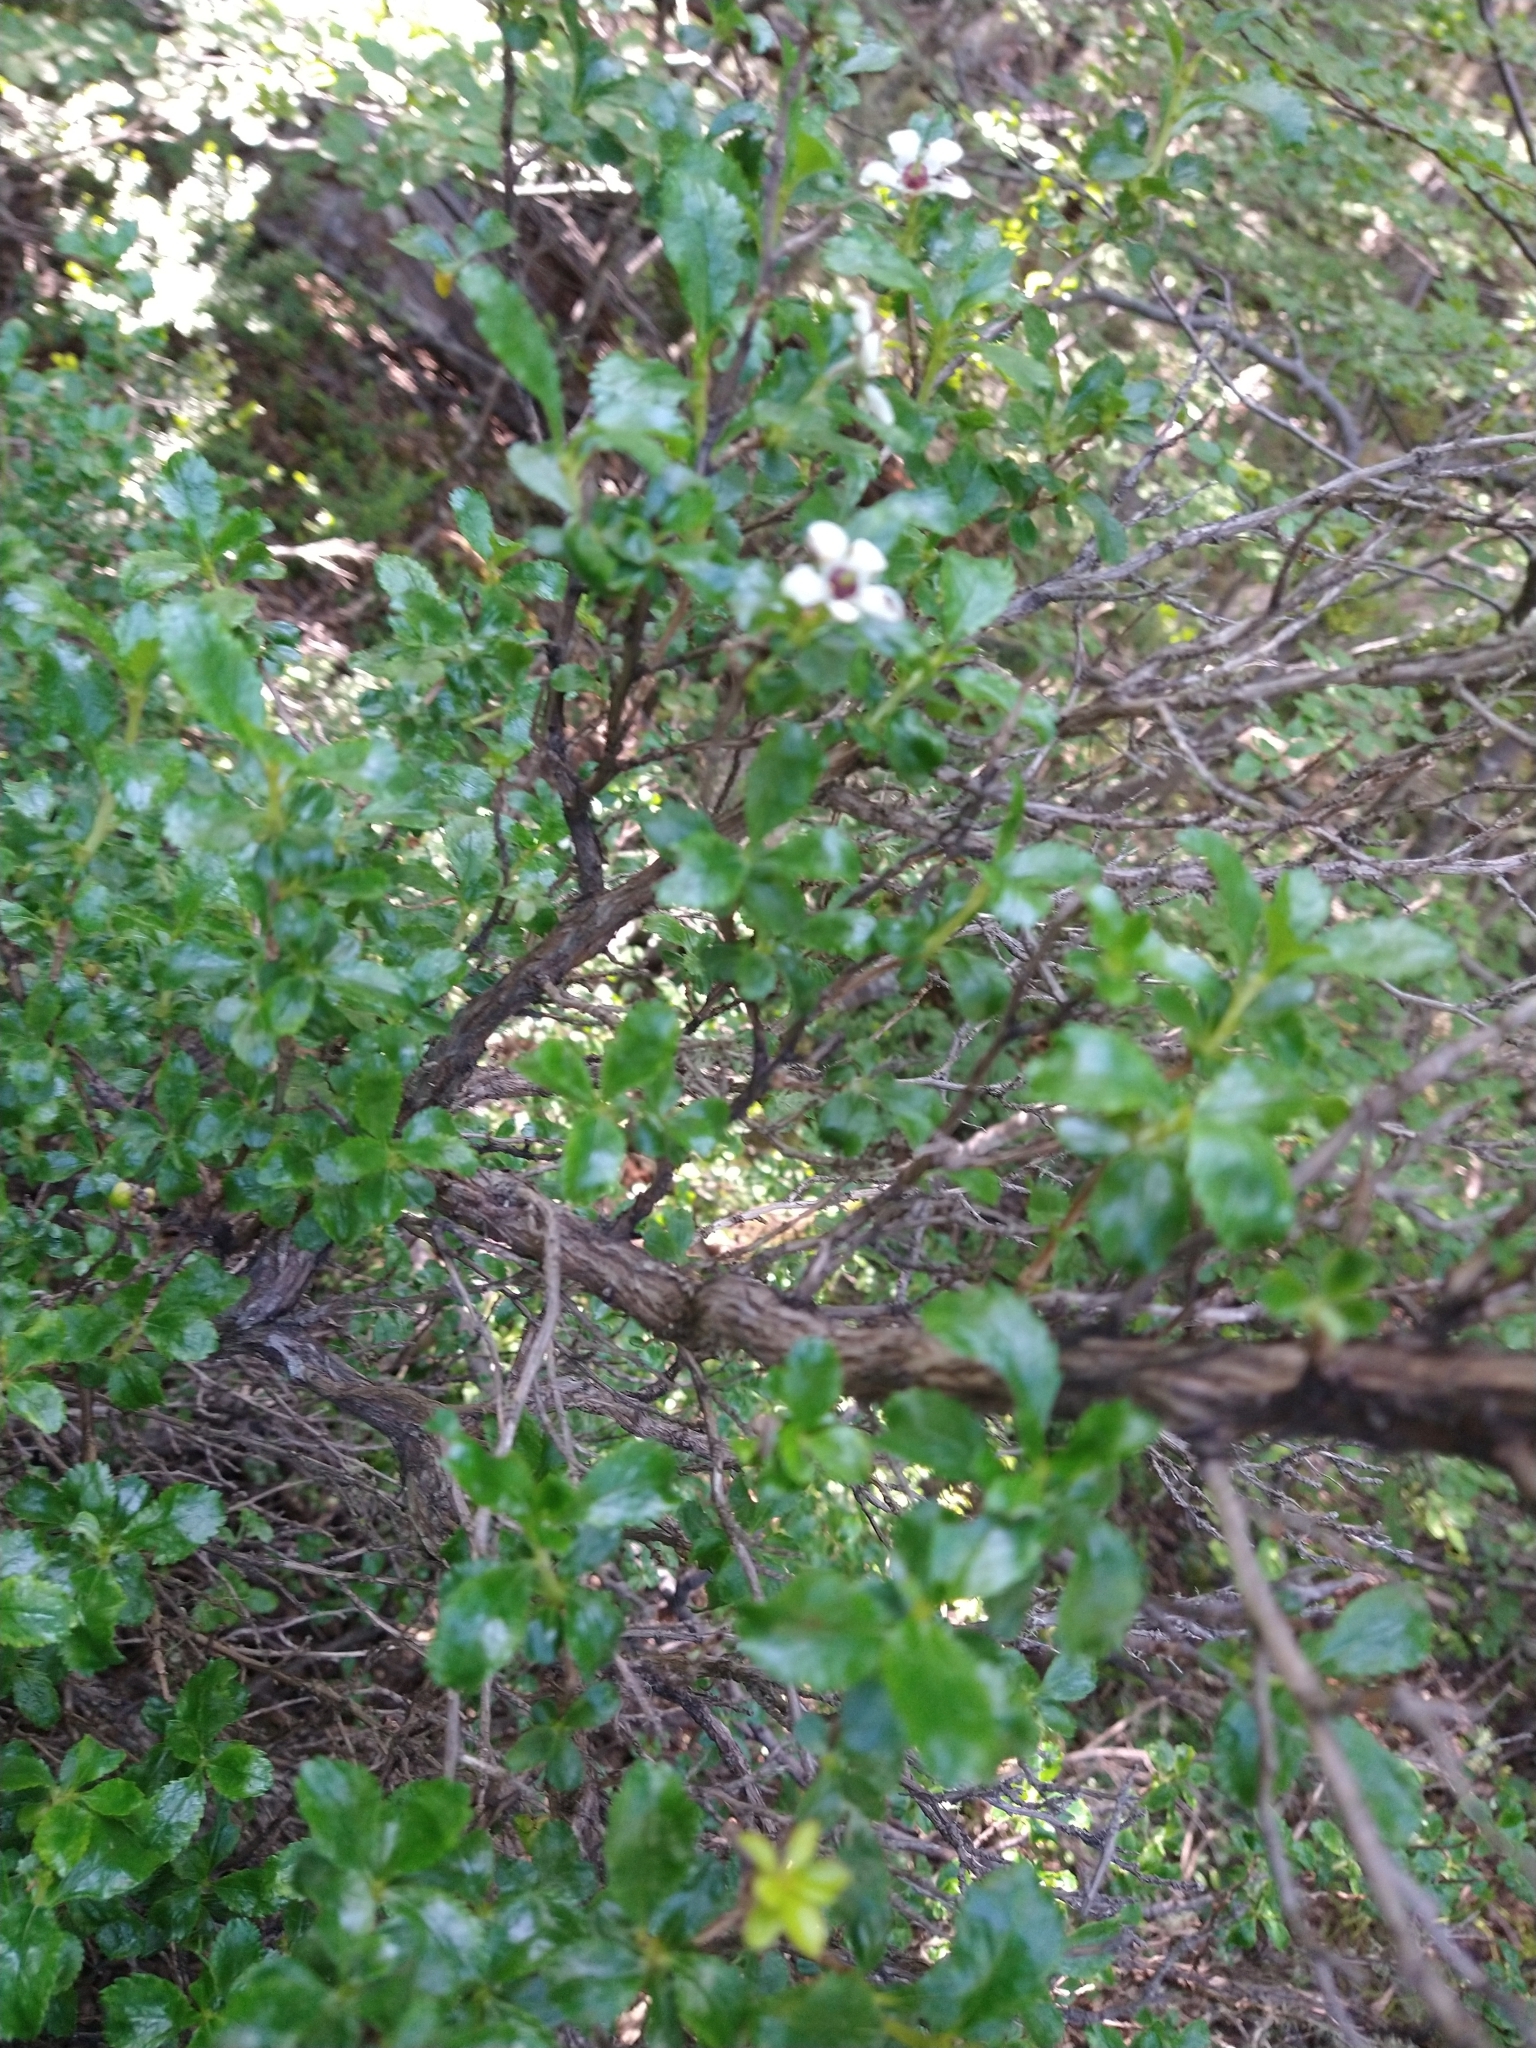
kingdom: Plantae
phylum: Tracheophyta
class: Magnoliopsida
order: Escalloniales
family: Escalloniaceae
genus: Escallonia
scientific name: Escallonia serrata
